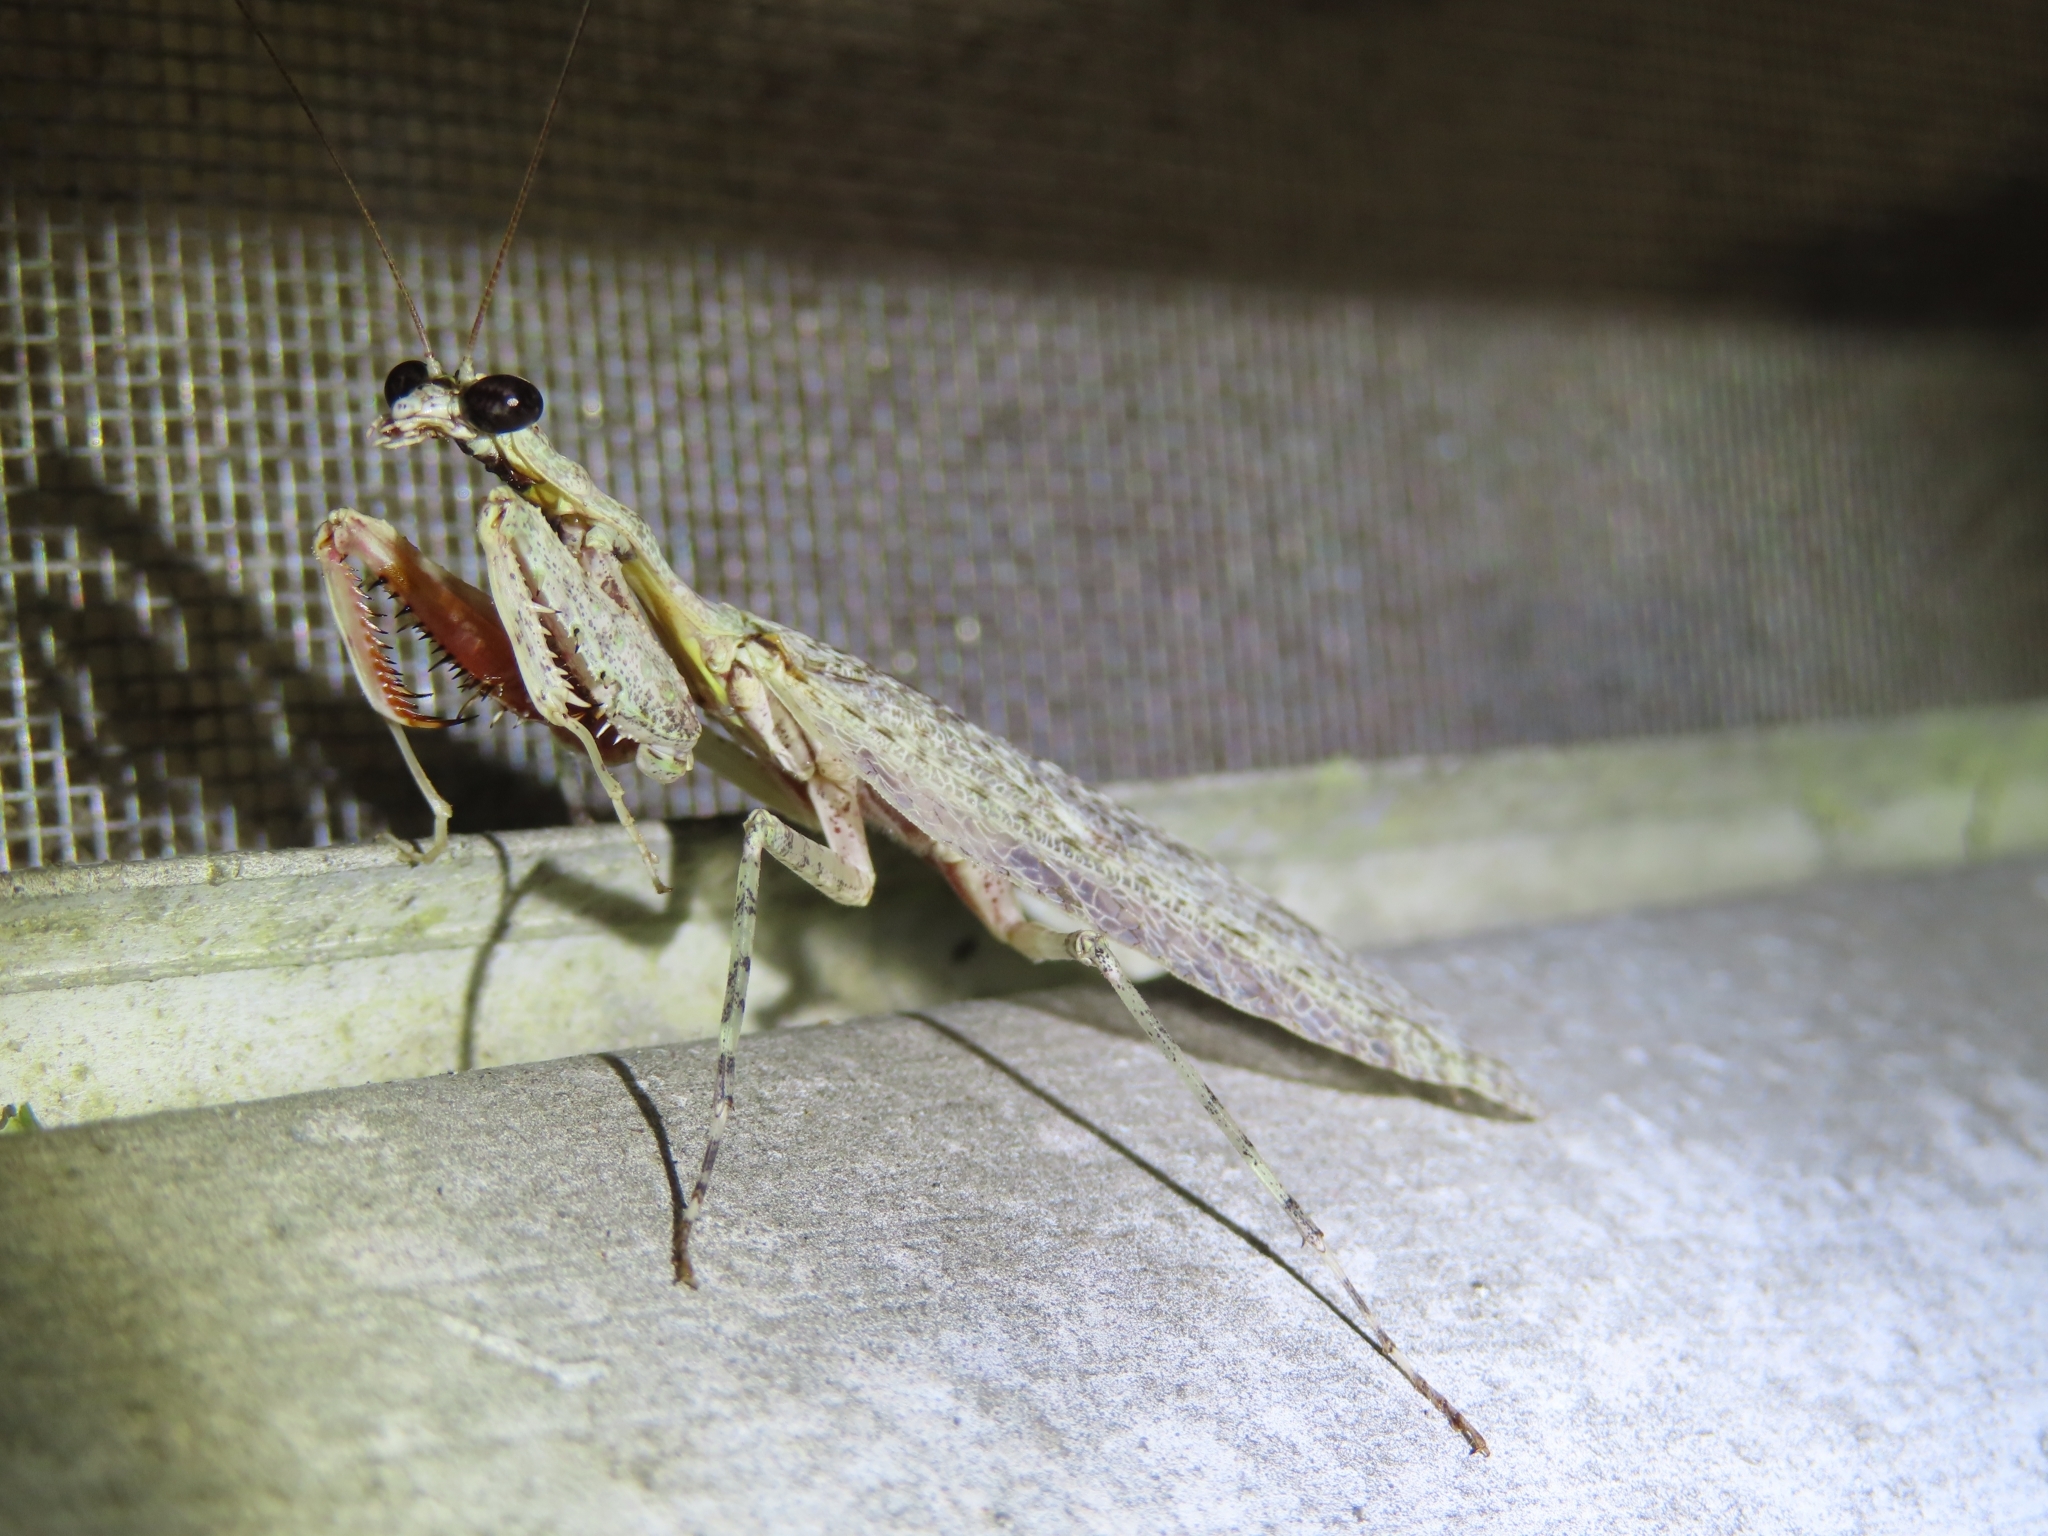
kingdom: Animalia
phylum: Arthropoda
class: Insecta
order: Mantodea
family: Epaphroditidae
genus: Gonatista
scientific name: Gonatista reticulata
